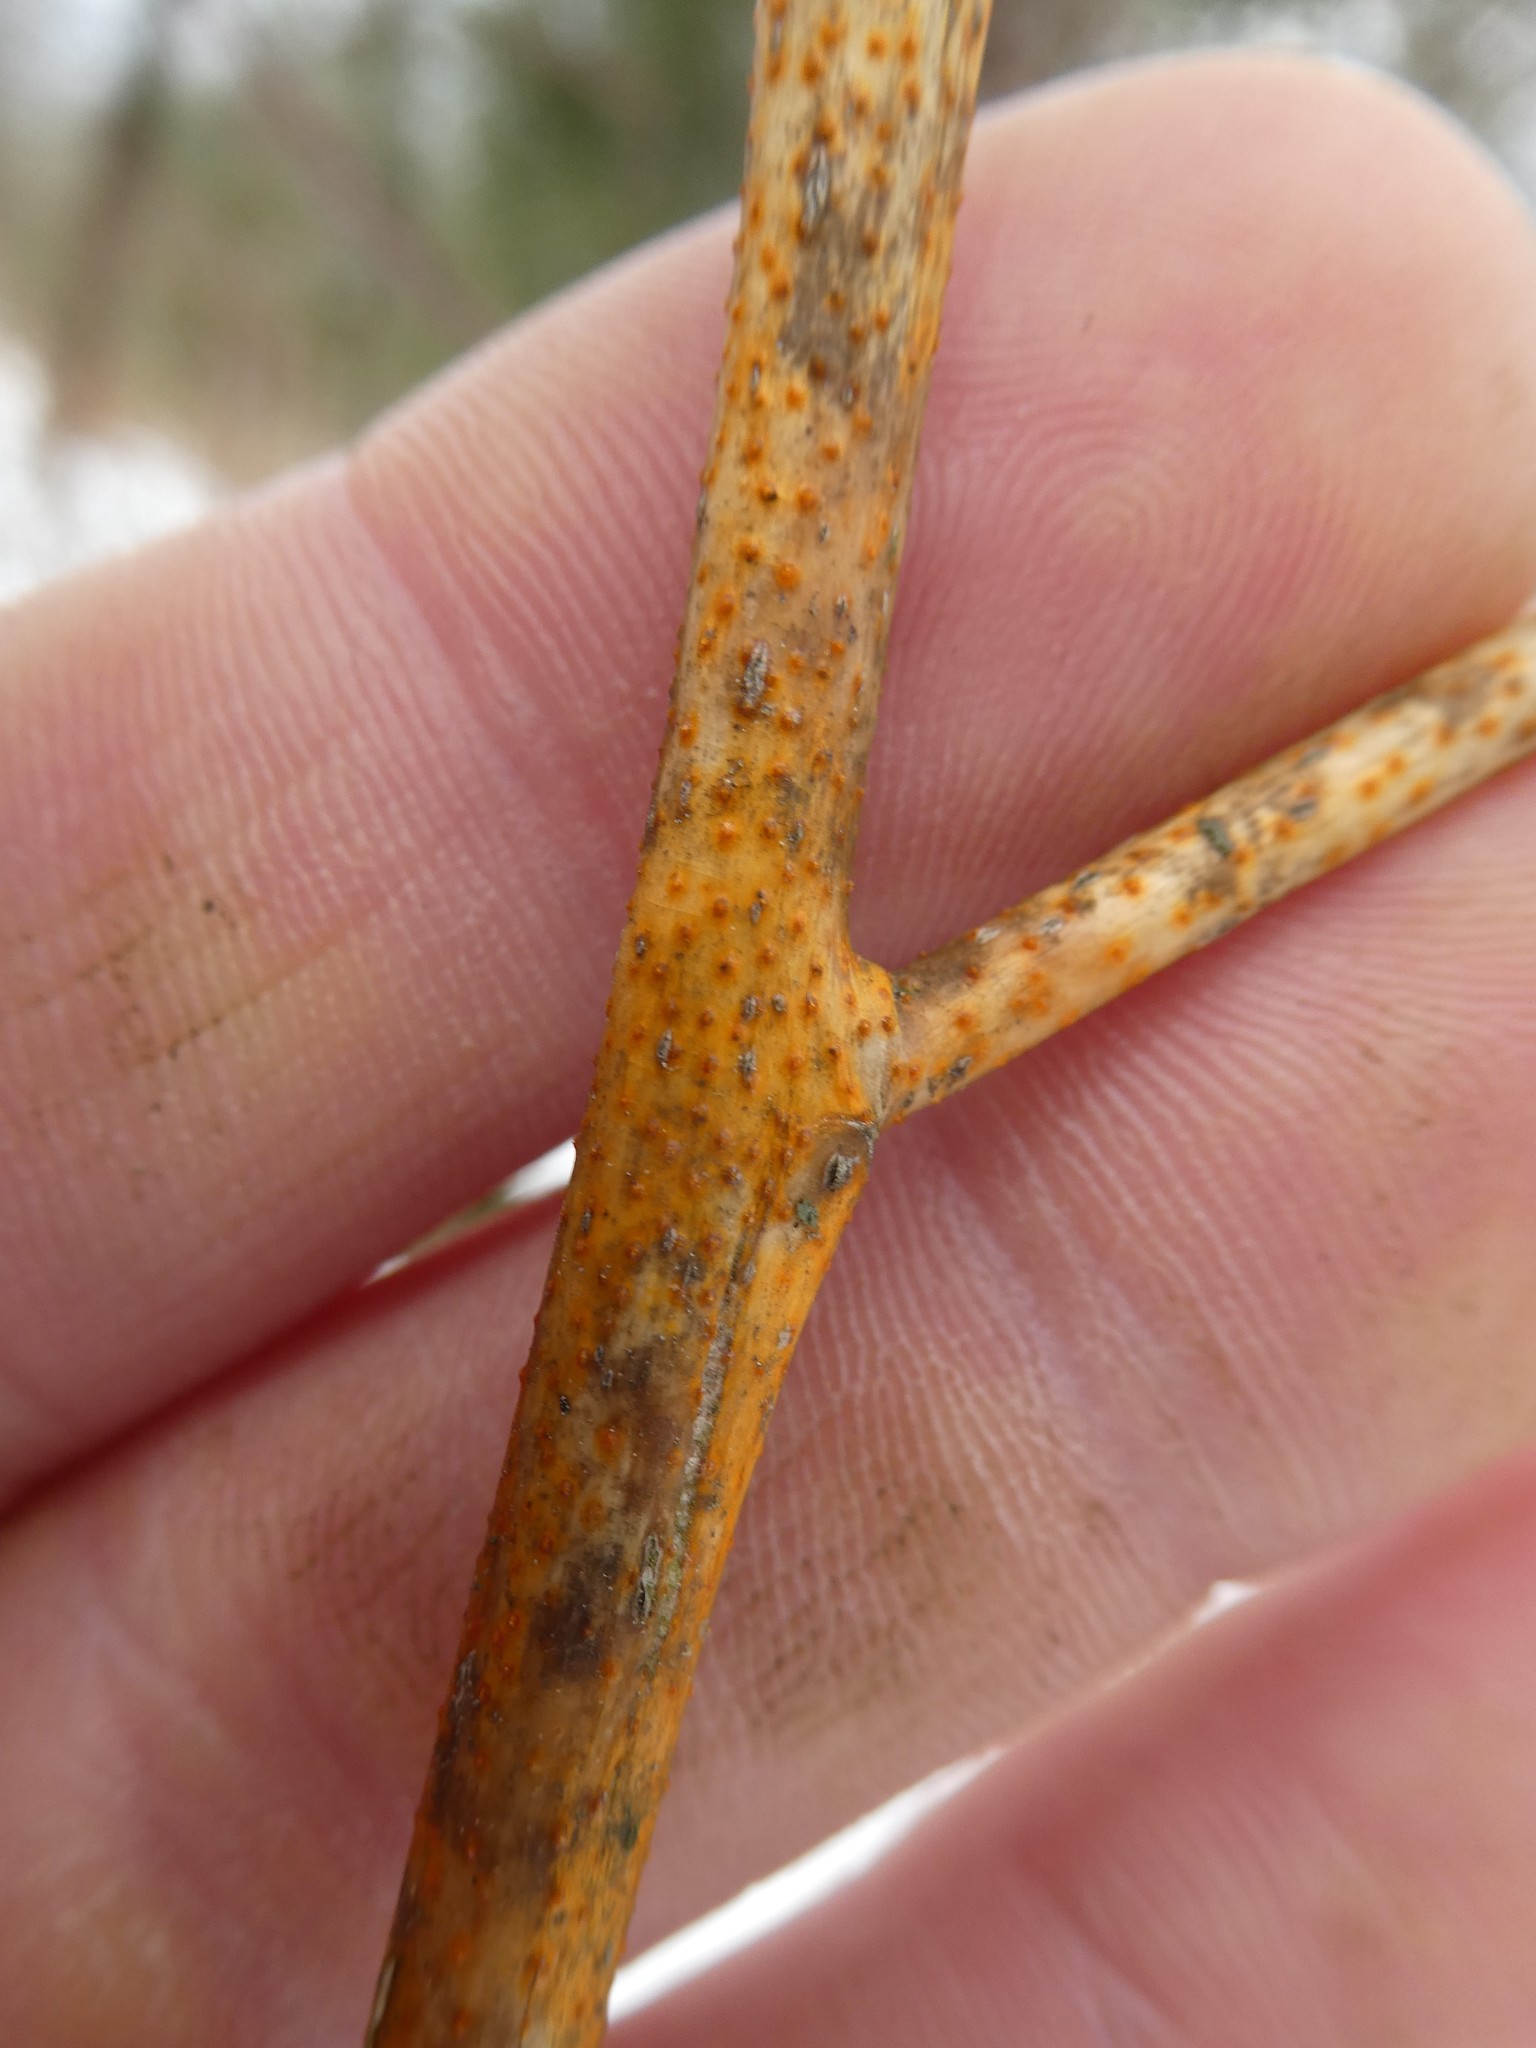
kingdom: Fungi
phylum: Ascomycota
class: Sordariomycetes
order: Diaporthales
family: Cryphonectriaceae
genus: Aurantioporthe
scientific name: Aurantioporthe corni
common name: Dogwood golden canker
